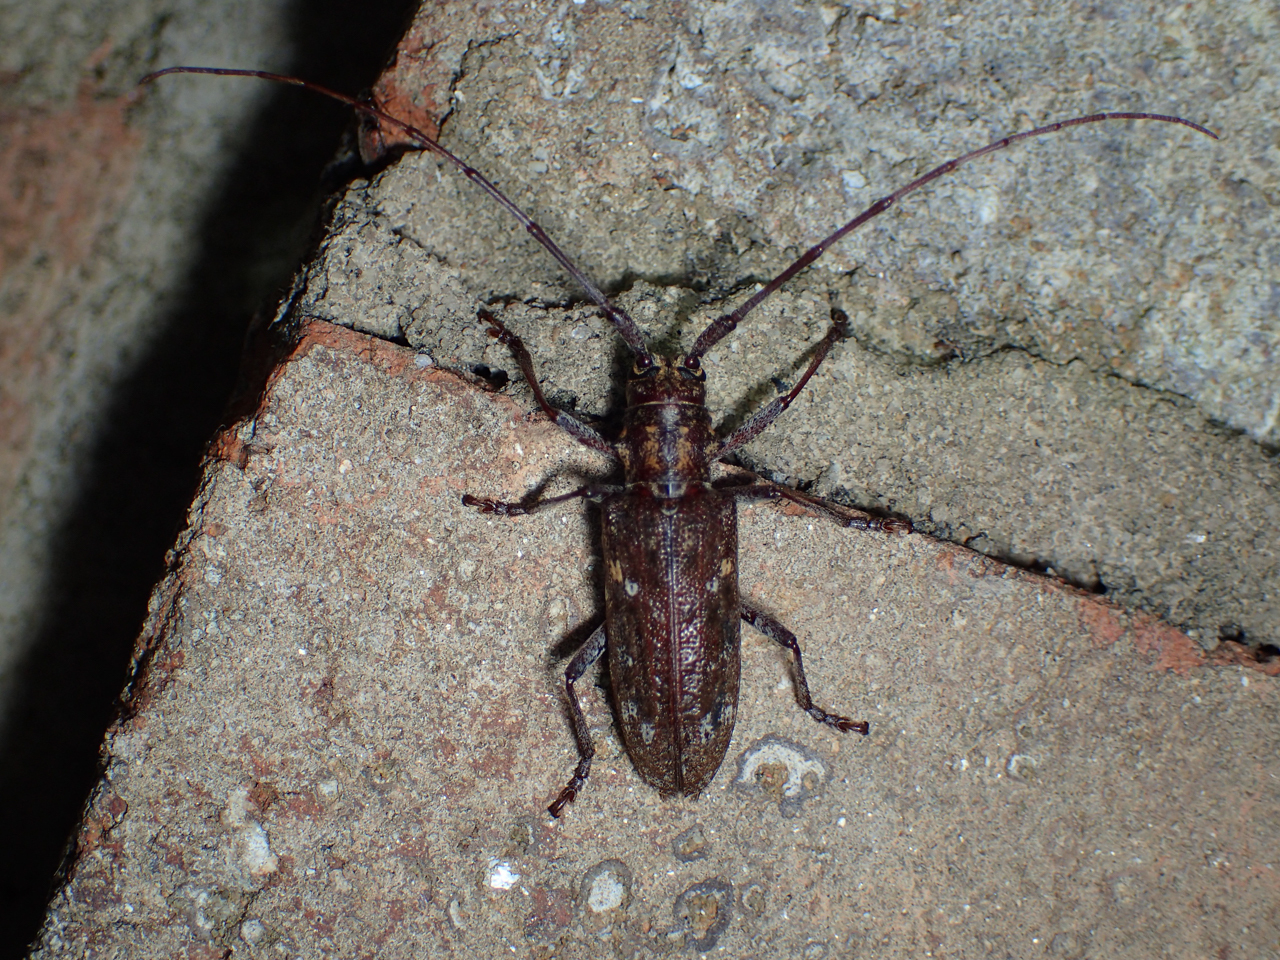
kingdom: Animalia
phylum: Arthropoda
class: Insecta
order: Coleoptera
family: Cerambycidae
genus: Monochamus
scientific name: Monochamus carolinensis
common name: Carolina pine sawyer
